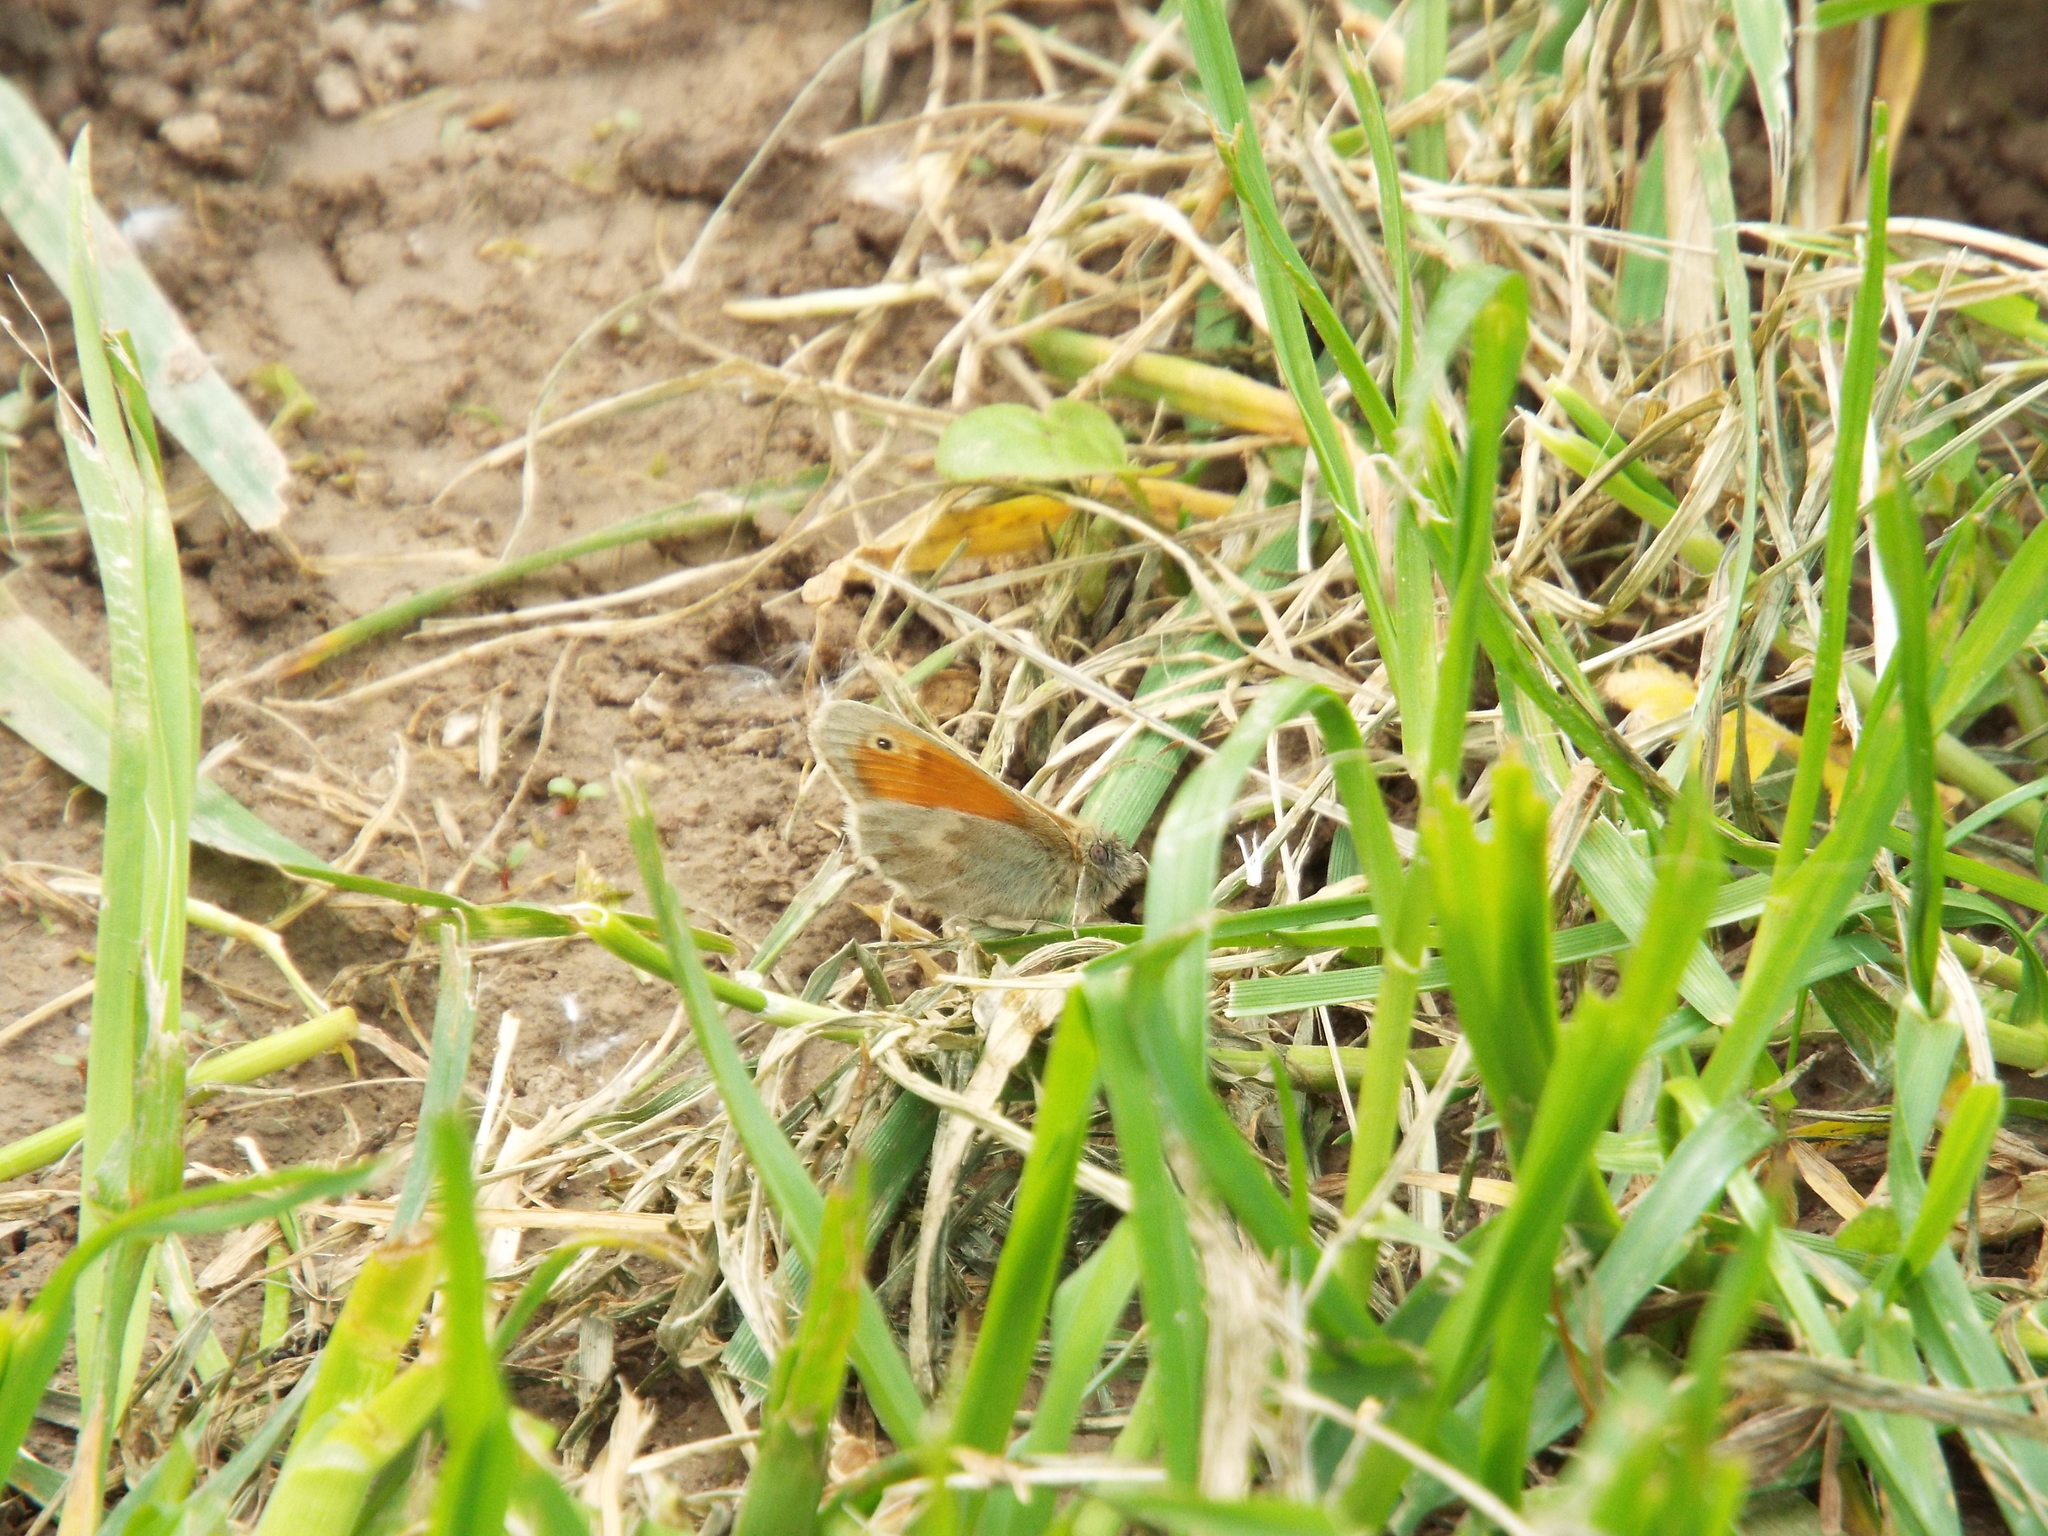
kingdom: Animalia
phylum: Arthropoda
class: Insecta
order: Lepidoptera
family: Nymphalidae
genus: Coenonympha
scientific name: Coenonympha pamphilus
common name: Small heath
